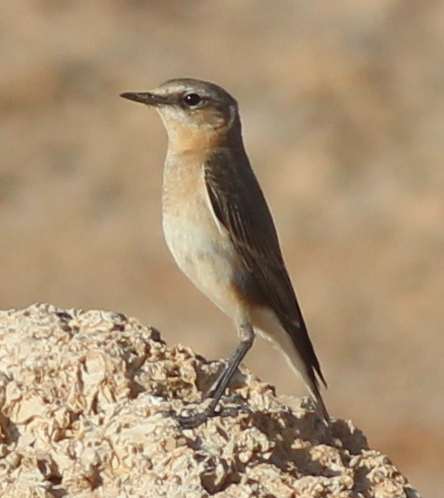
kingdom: Animalia
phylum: Chordata
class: Aves
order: Passeriformes
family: Muscicapidae
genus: Oenanthe
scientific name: Oenanthe oenanthe
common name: Northern wheatear
